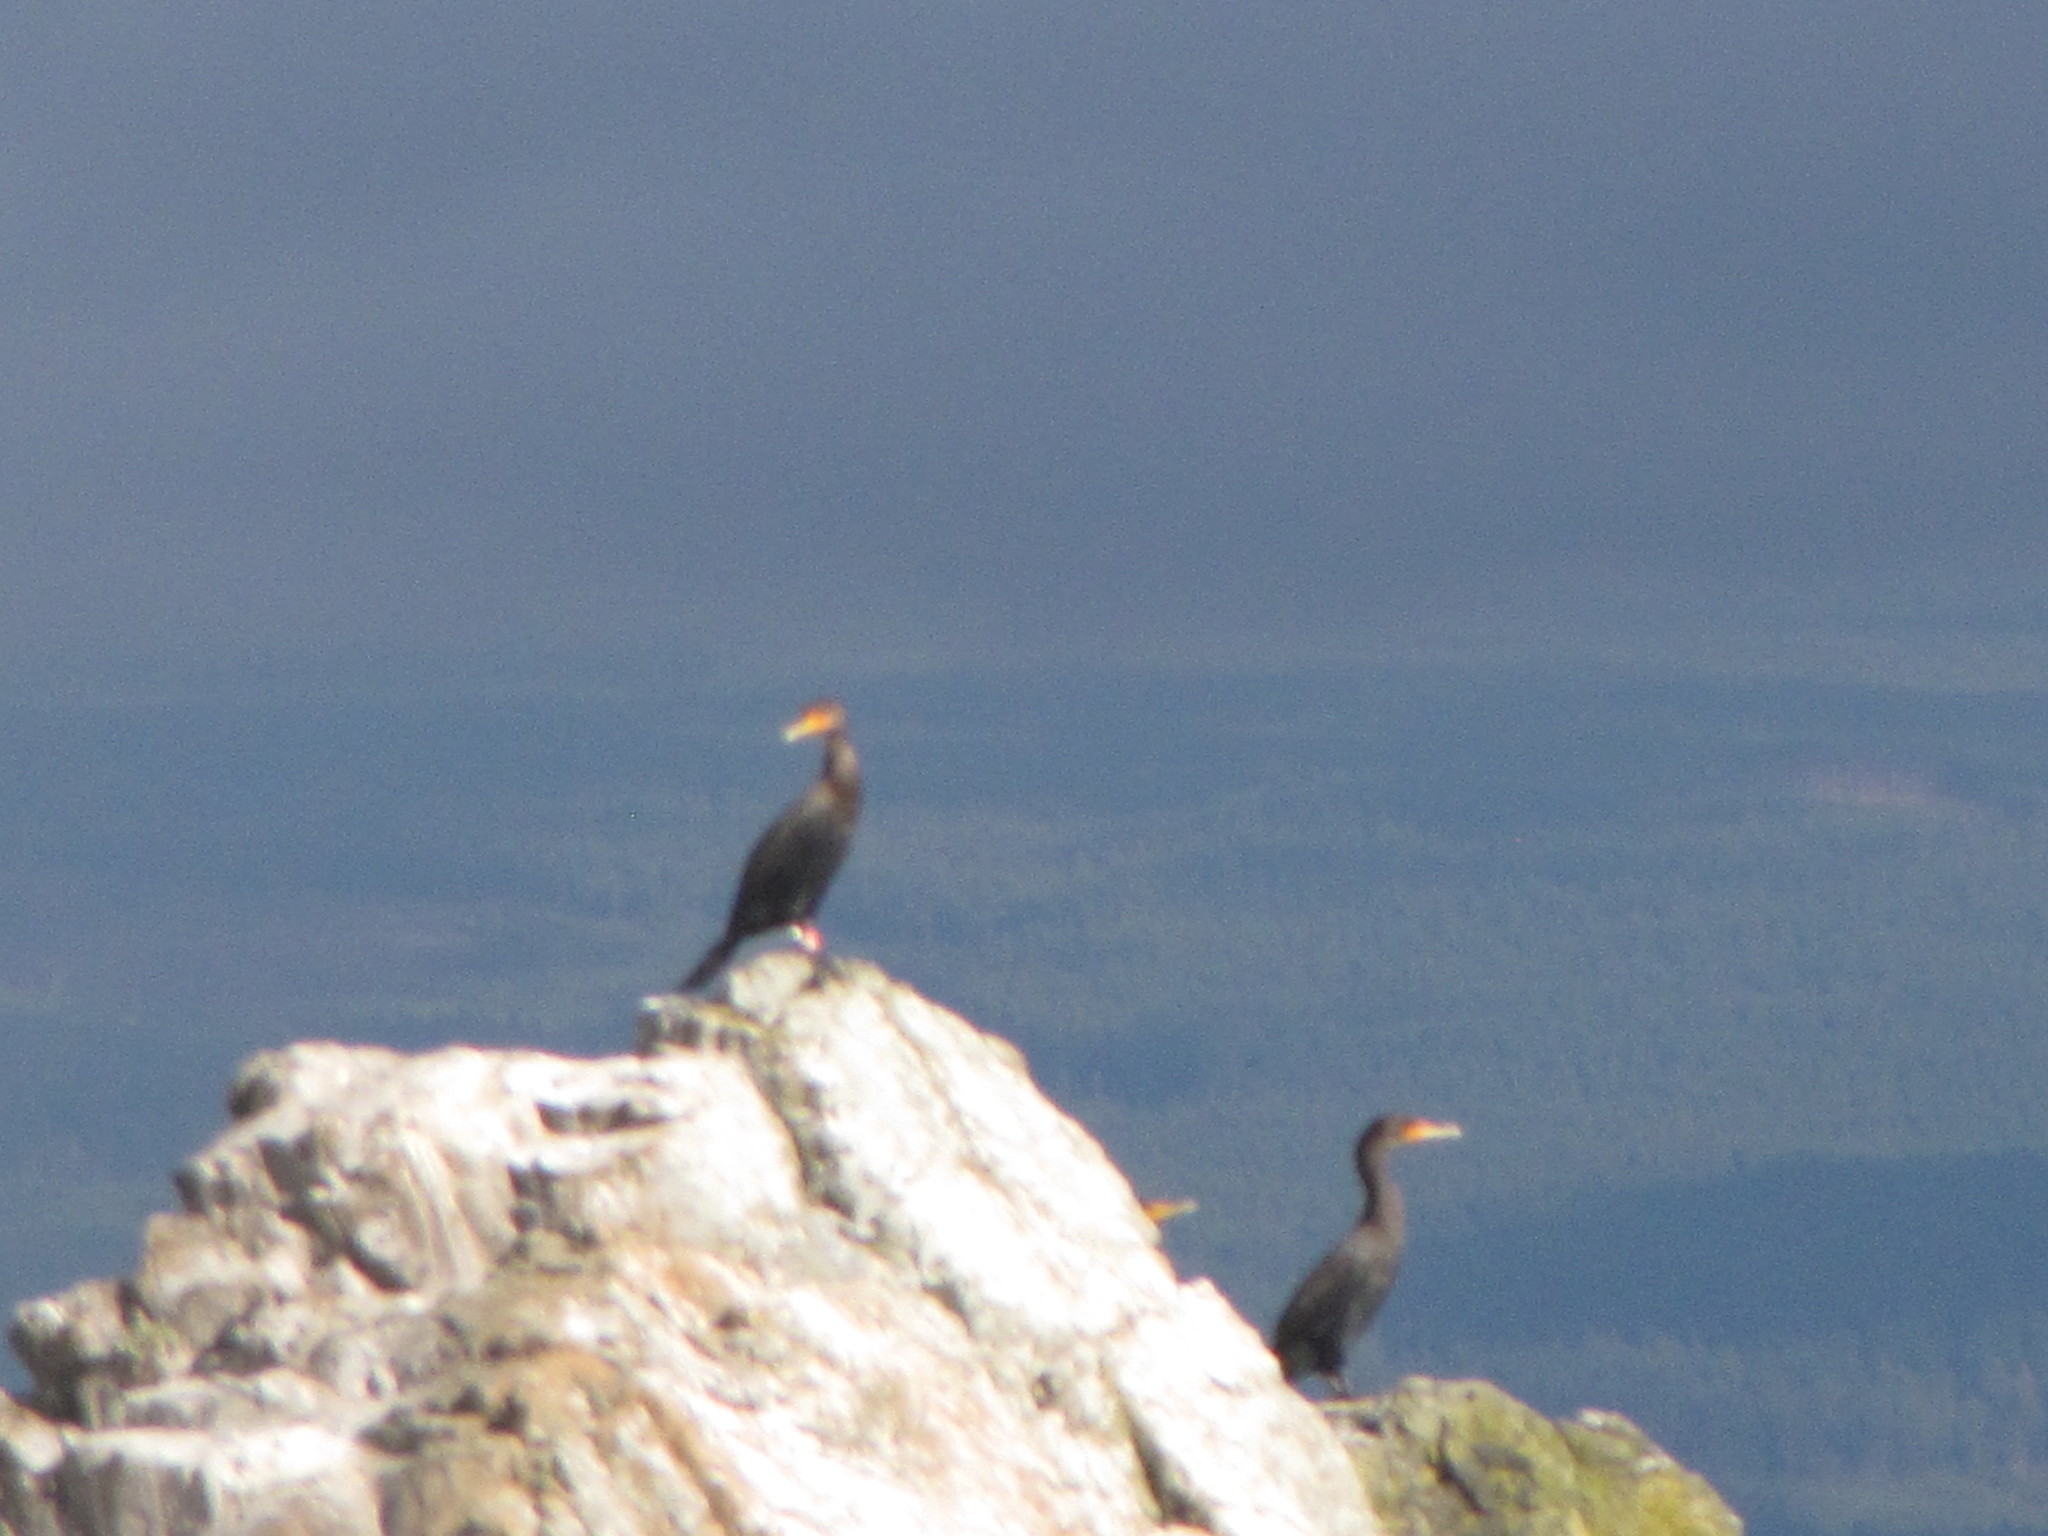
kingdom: Animalia
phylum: Chordata
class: Aves
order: Suliformes
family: Phalacrocoracidae
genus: Phalacrocorax
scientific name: Phalacrocorax auritus
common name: Double-crested cormorant
